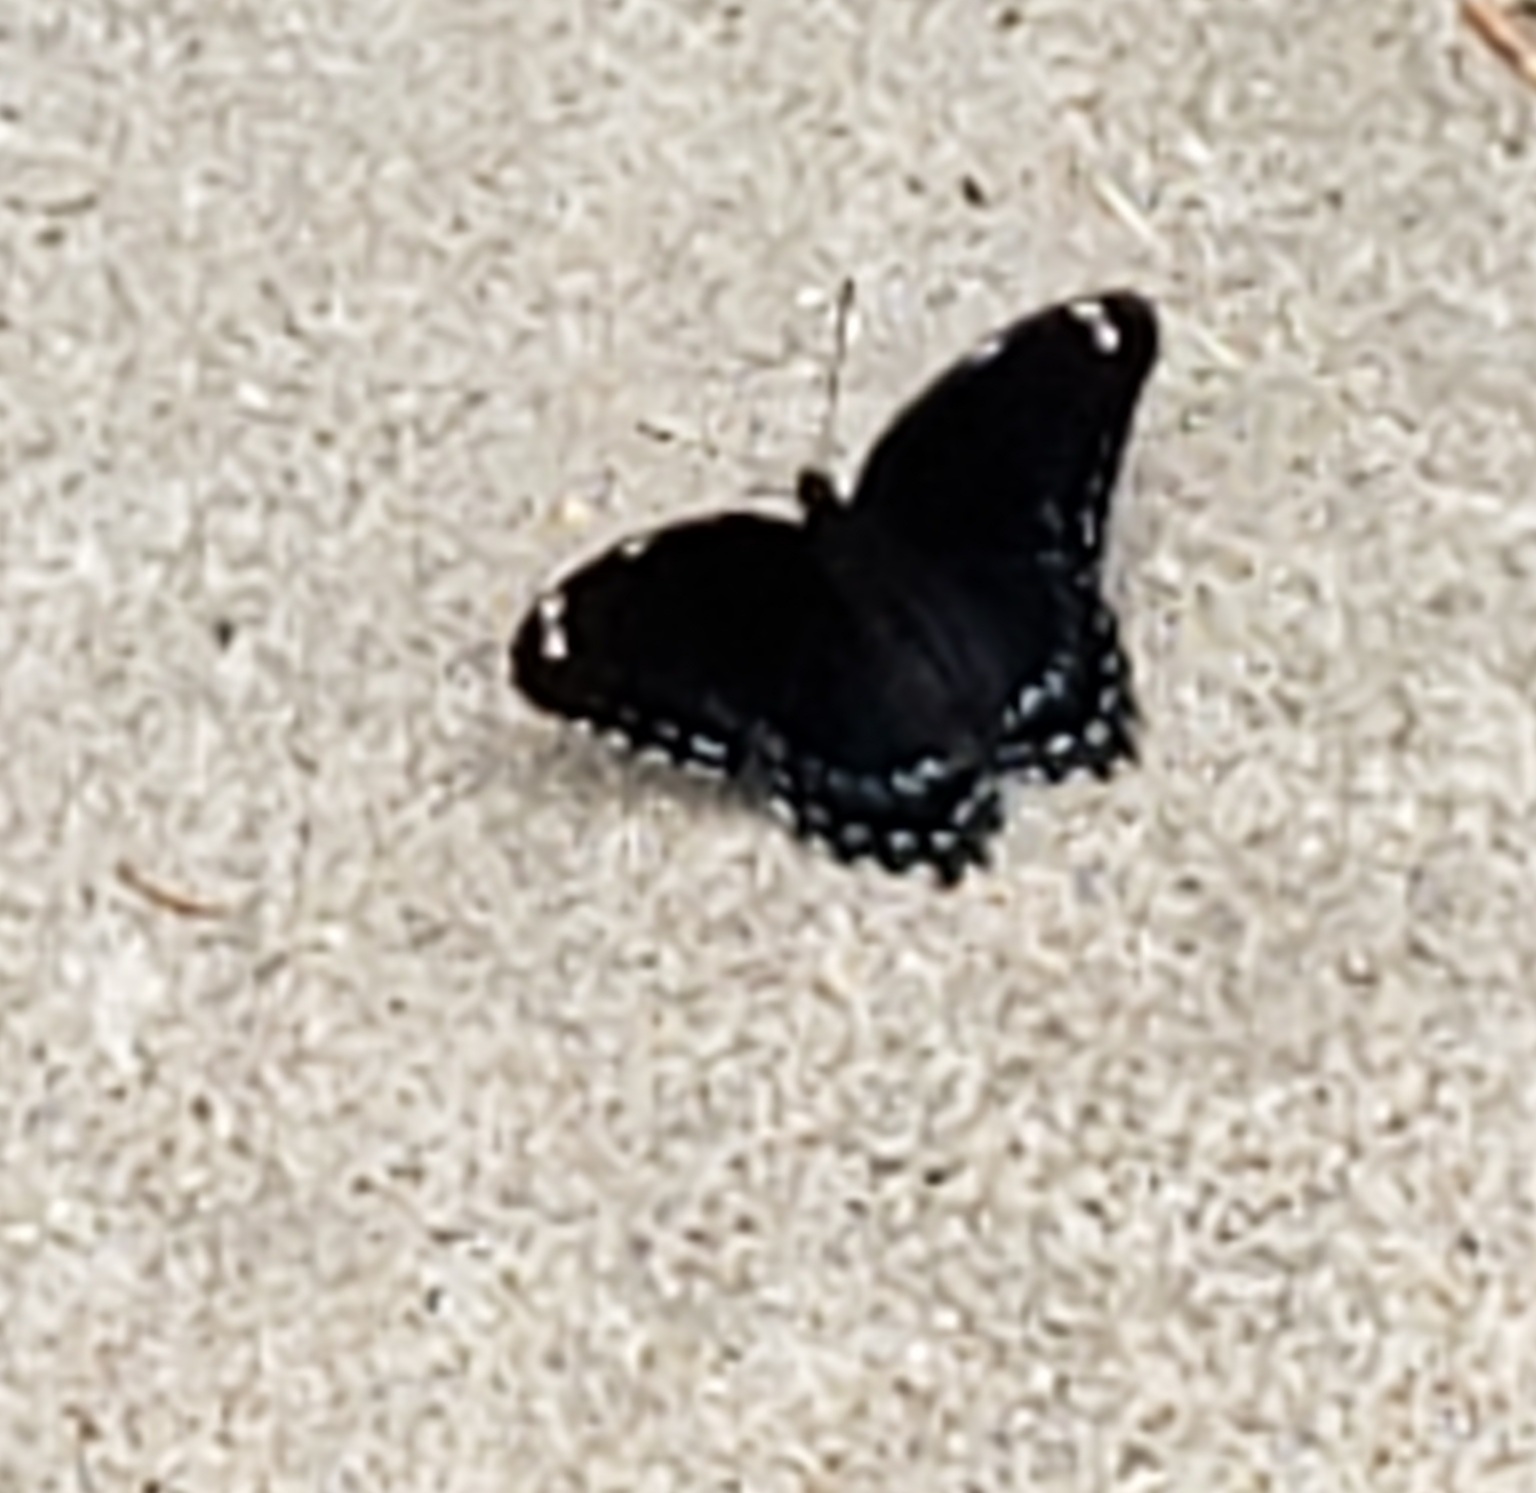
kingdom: Animalia
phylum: Arthropoda
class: Insecta
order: Lepidoptera
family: Nymphalidae
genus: Limenitis
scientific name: Limenitis arthemis
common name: Red-spotted admiral
